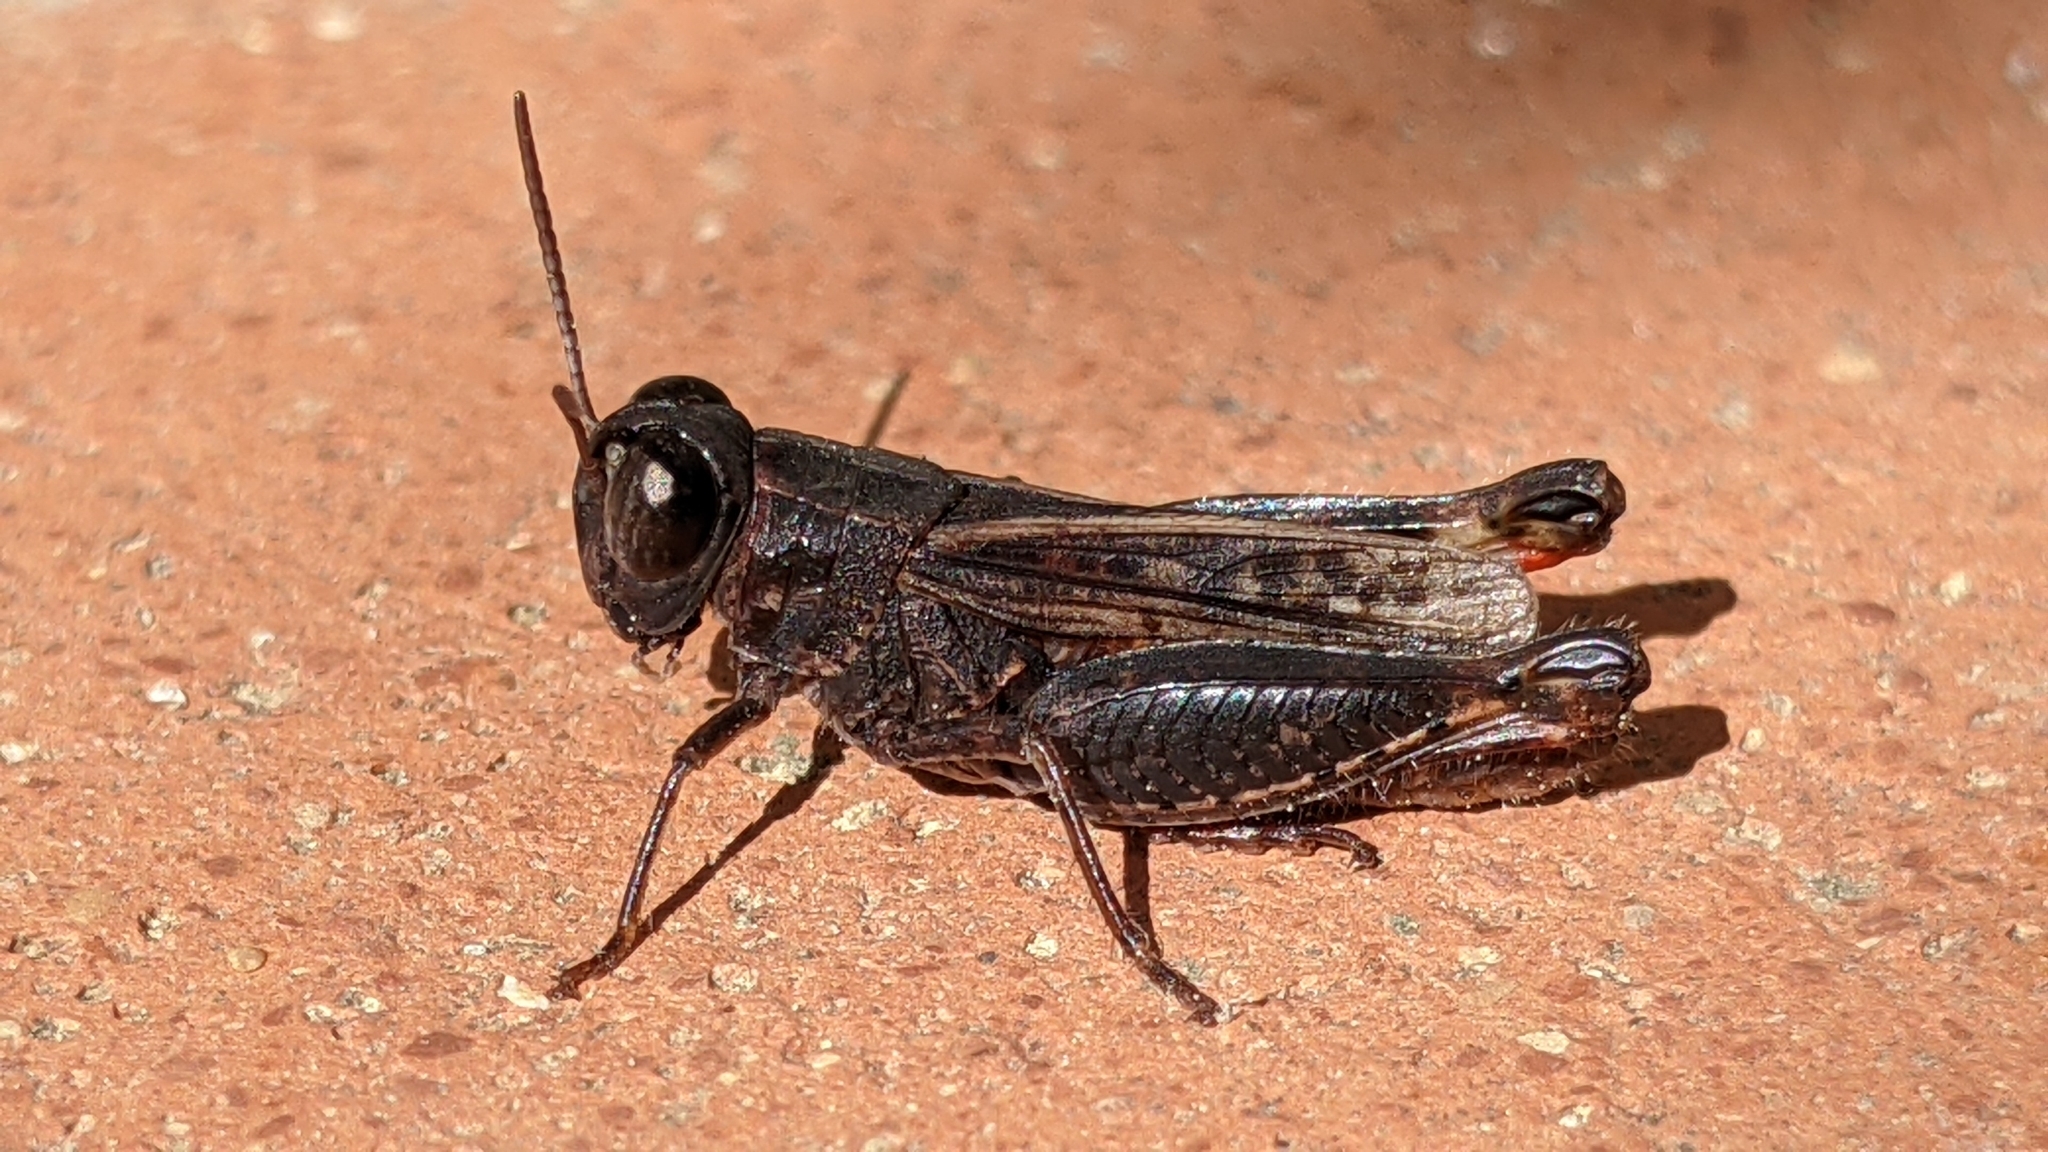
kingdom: Animalia
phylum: Arthropoda
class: Insecta
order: Orthoptera
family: Acrididae
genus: Calliptamus
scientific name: Calliptamus siciliae
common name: Pygmy pincer grasshopper
